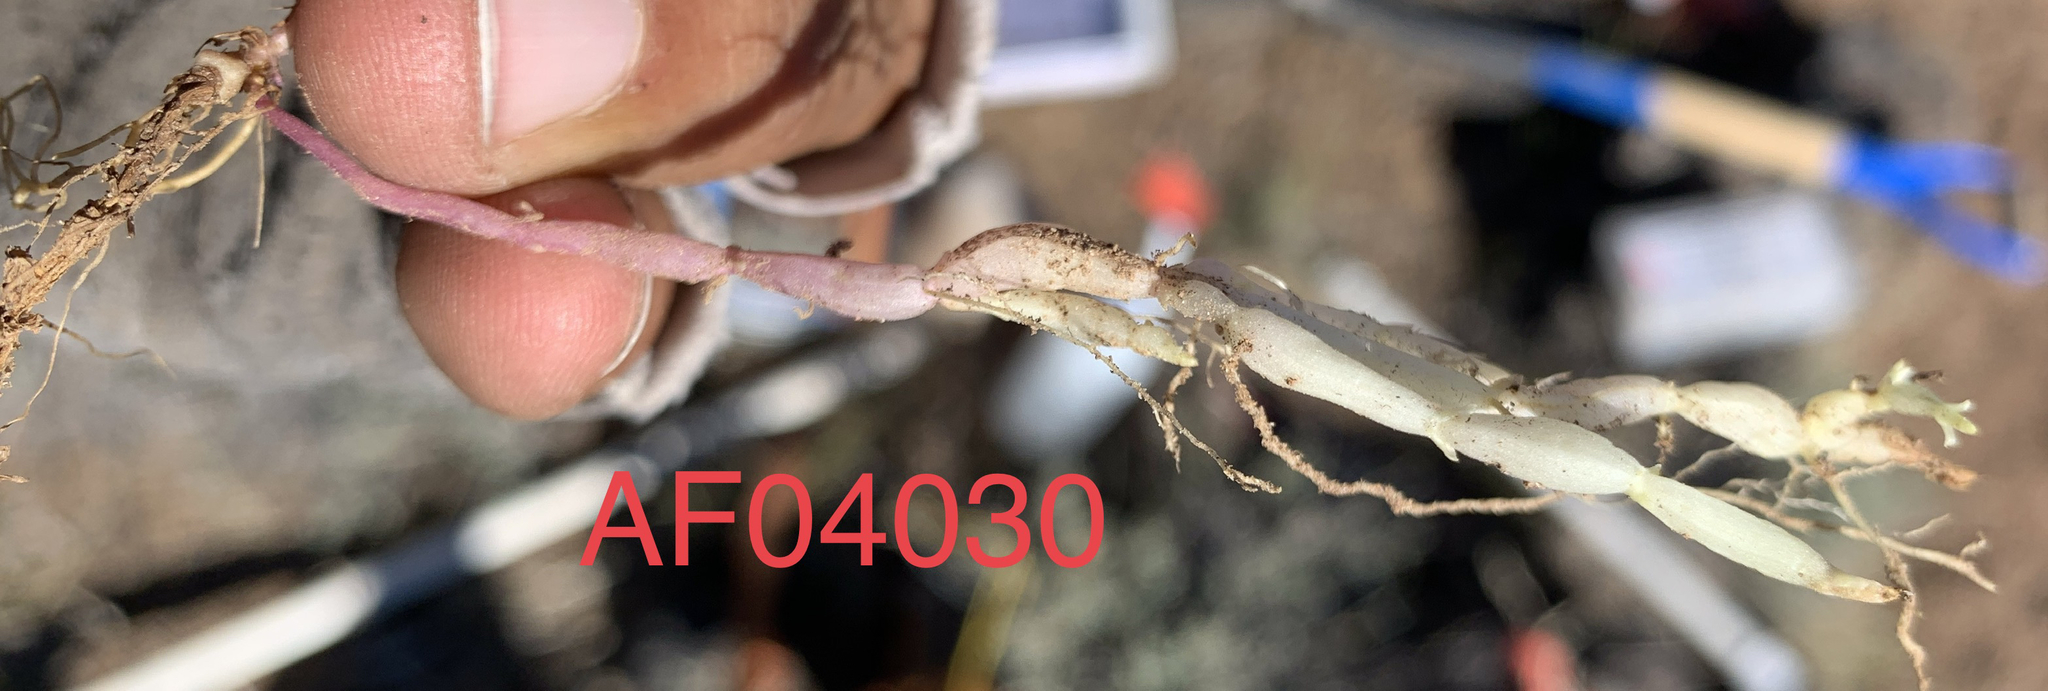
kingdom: Plantae
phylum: Tracheophyta
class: Magnoliopsida
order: Lamiales
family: Lamiaceae
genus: Scutellaria
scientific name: Scutellaria angustifolia
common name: Narrow-leaved skullcap
